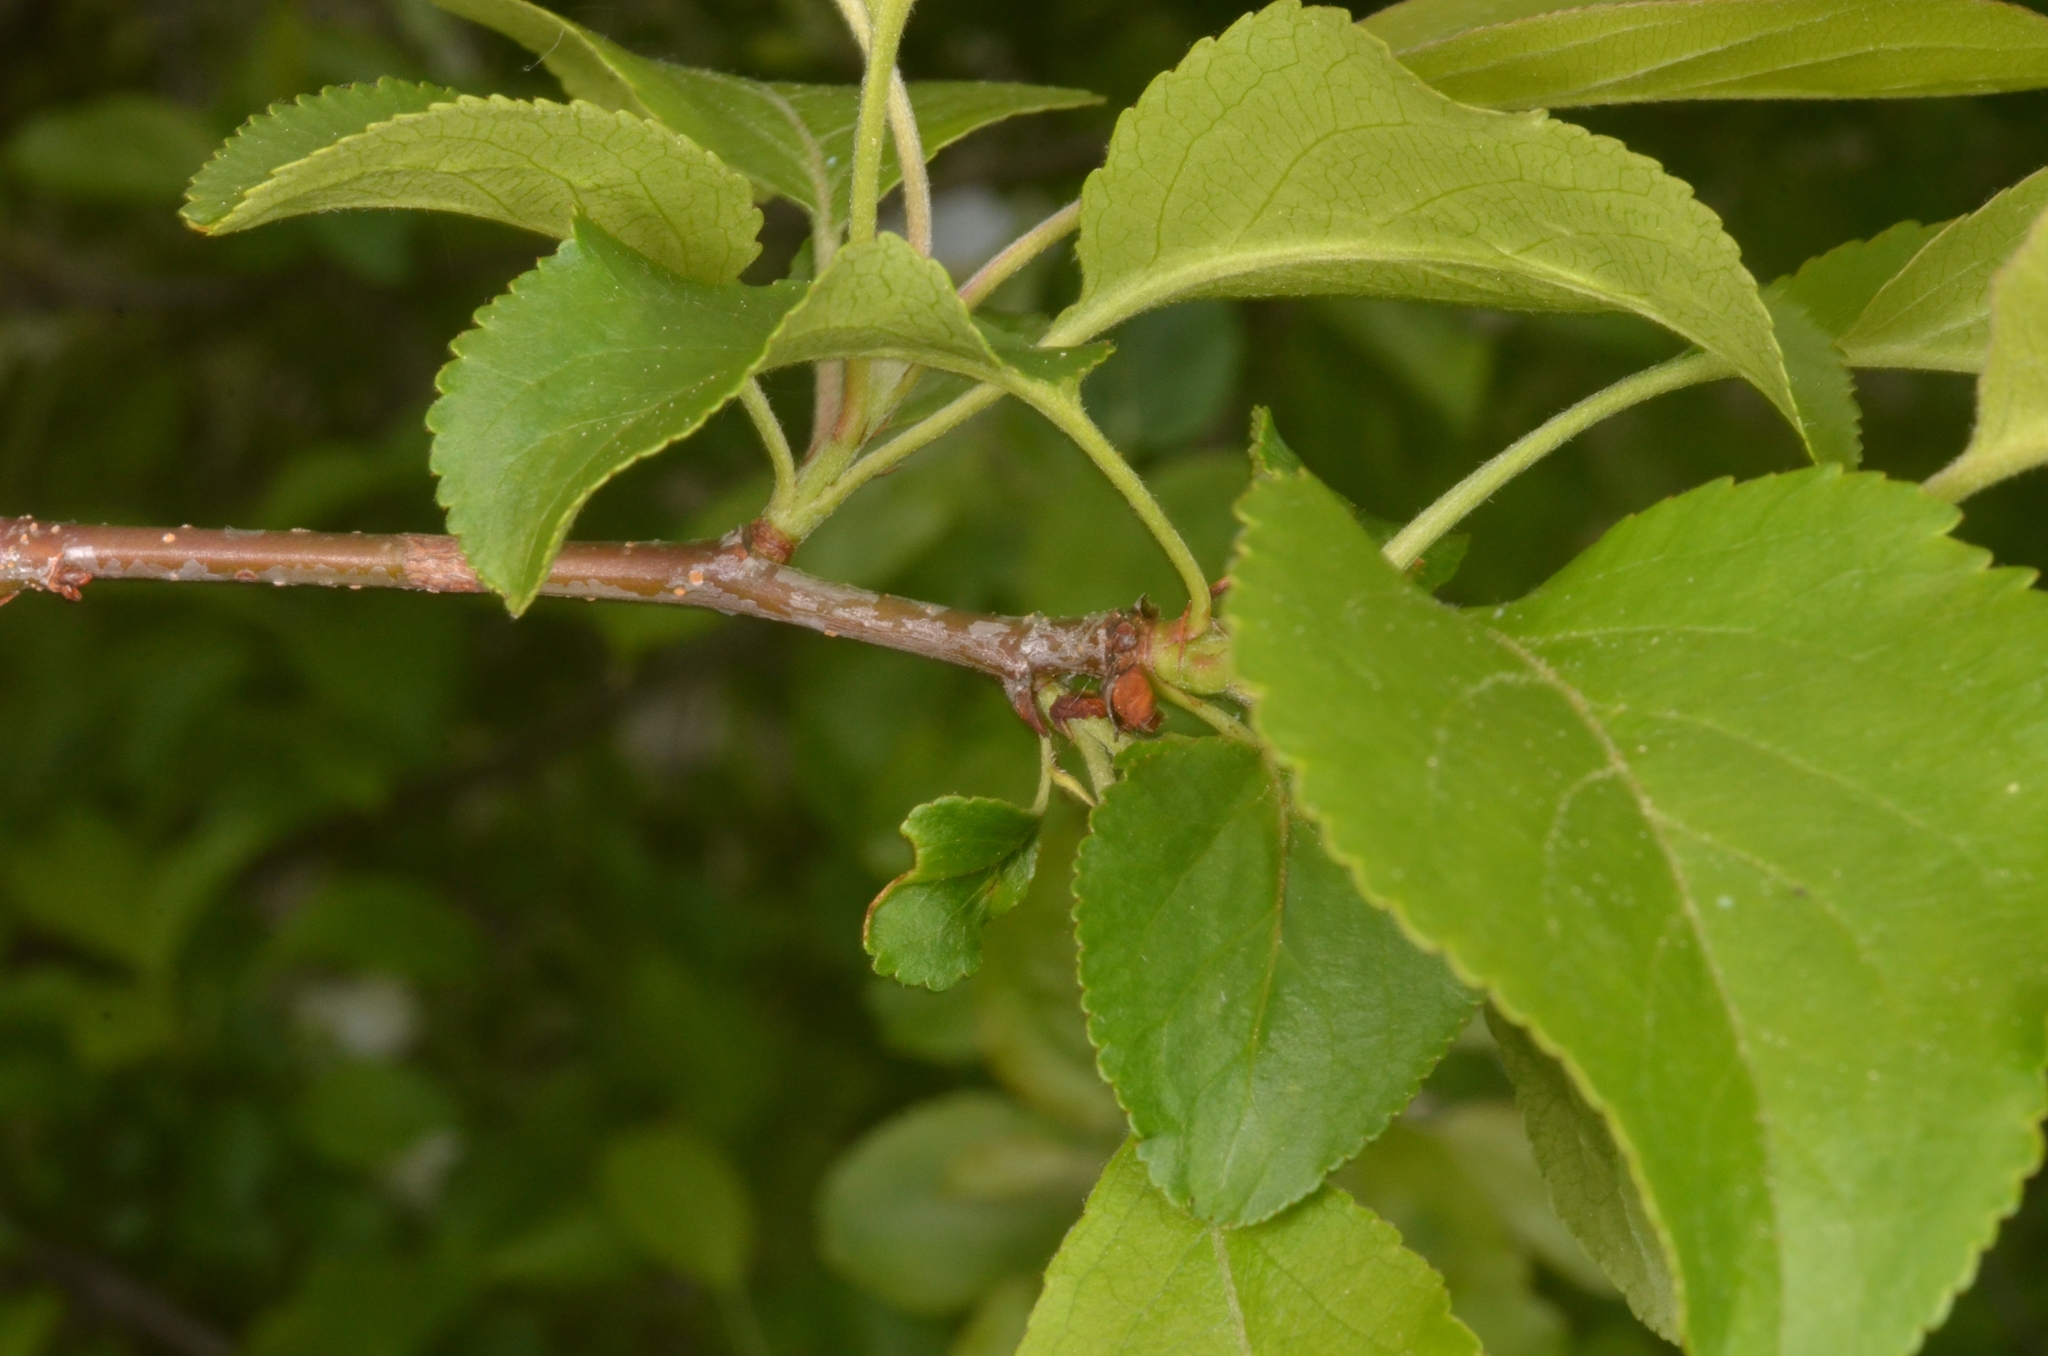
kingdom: Plantae
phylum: Tracheophyta
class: Magnoliopsida
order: Rosales
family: Rosaceae
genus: Malus
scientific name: Malus domestica
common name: Apple
